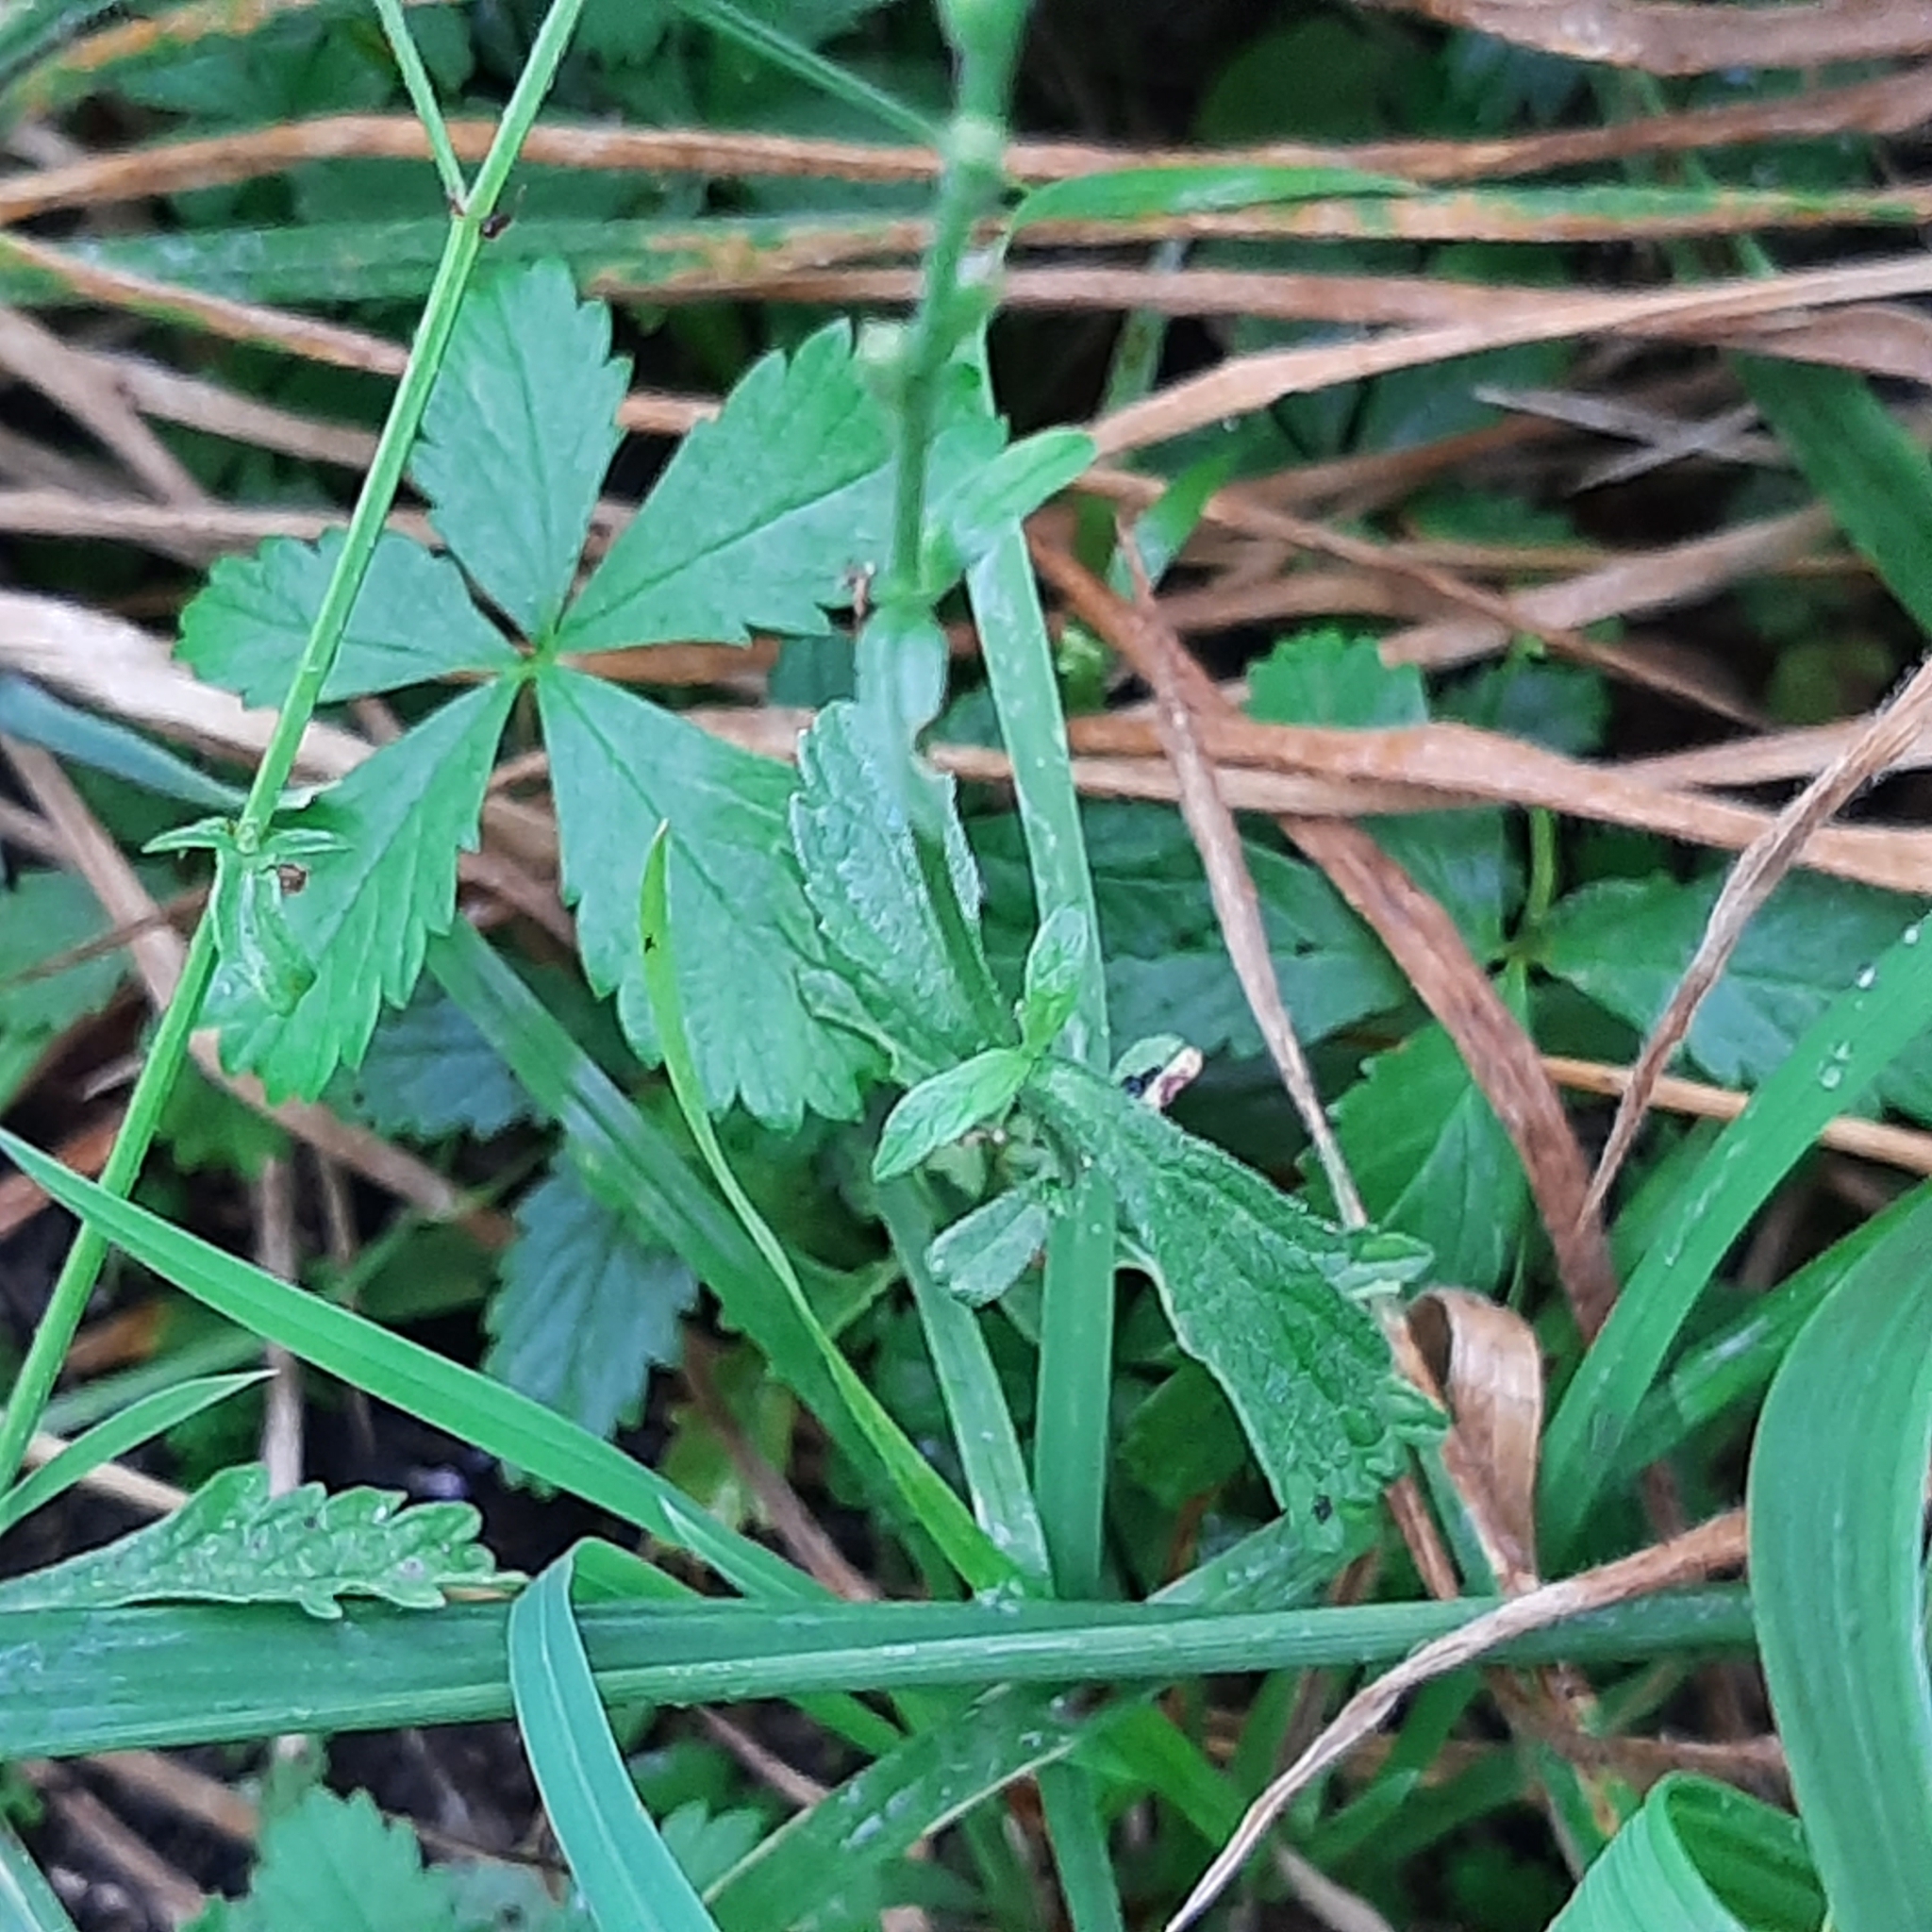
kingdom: Plantae
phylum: Tracheophyta
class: Magnoliopsida
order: Lamiales
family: Verbenaceae
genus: Verbena
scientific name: Verbena officinalis
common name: Vervain
